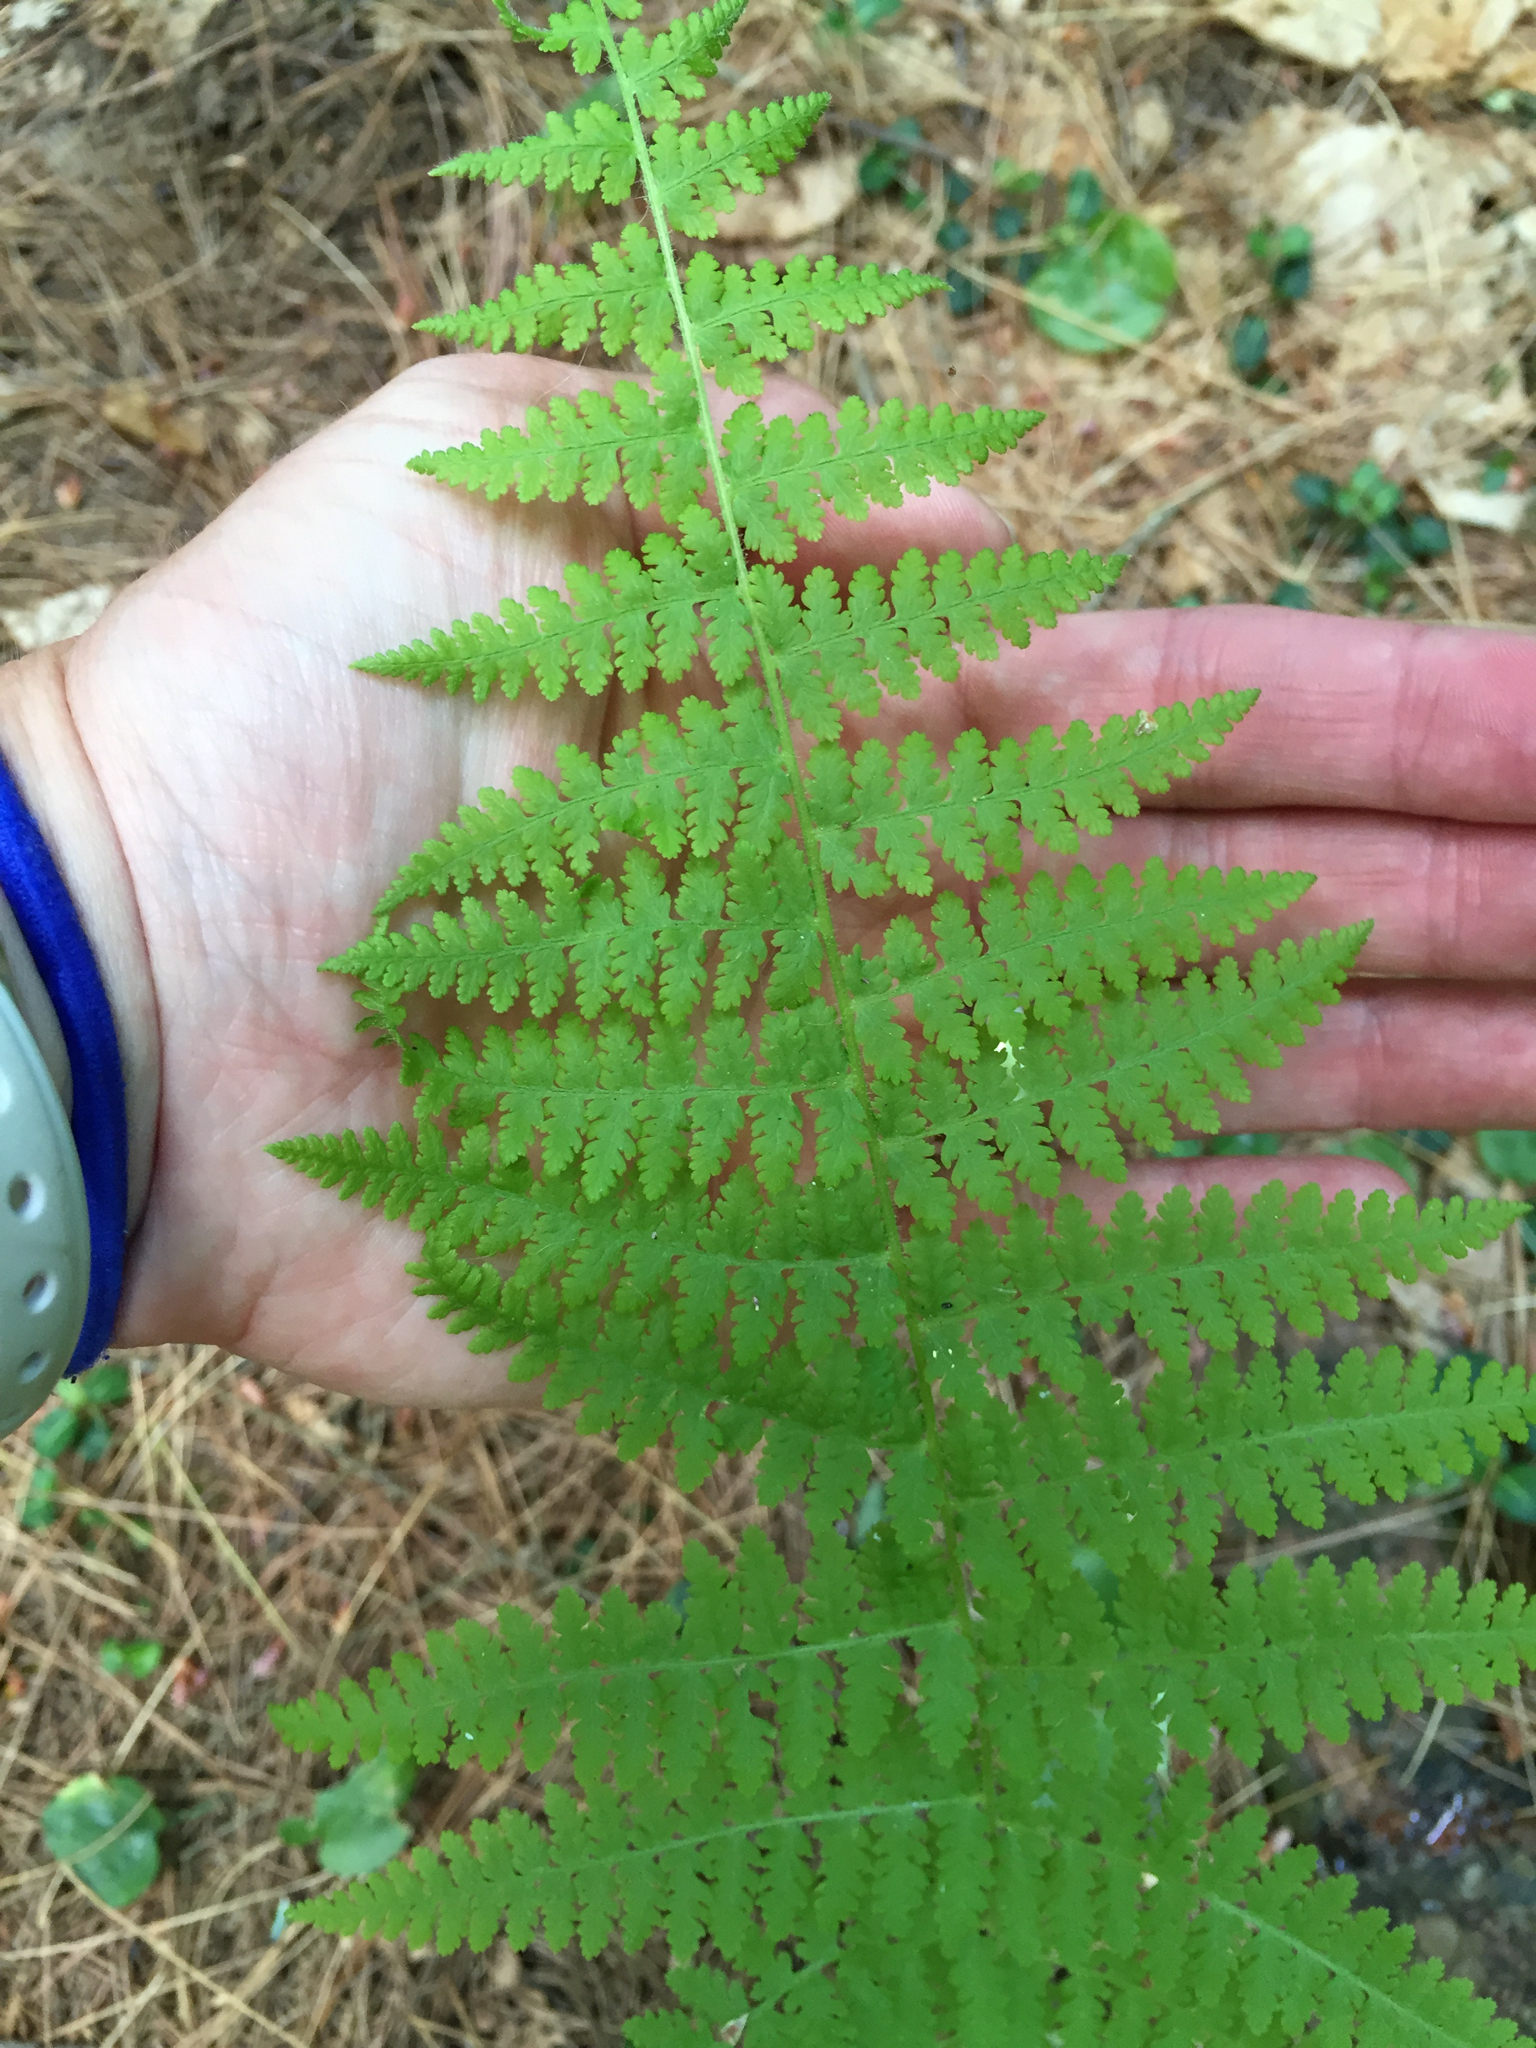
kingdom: Plantae
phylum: Tracheophyta
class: Polypodiopsida
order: Polypodiales
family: Athyriaceae
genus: Athyrium
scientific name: Athyrium angustum
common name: Northern lady fern
